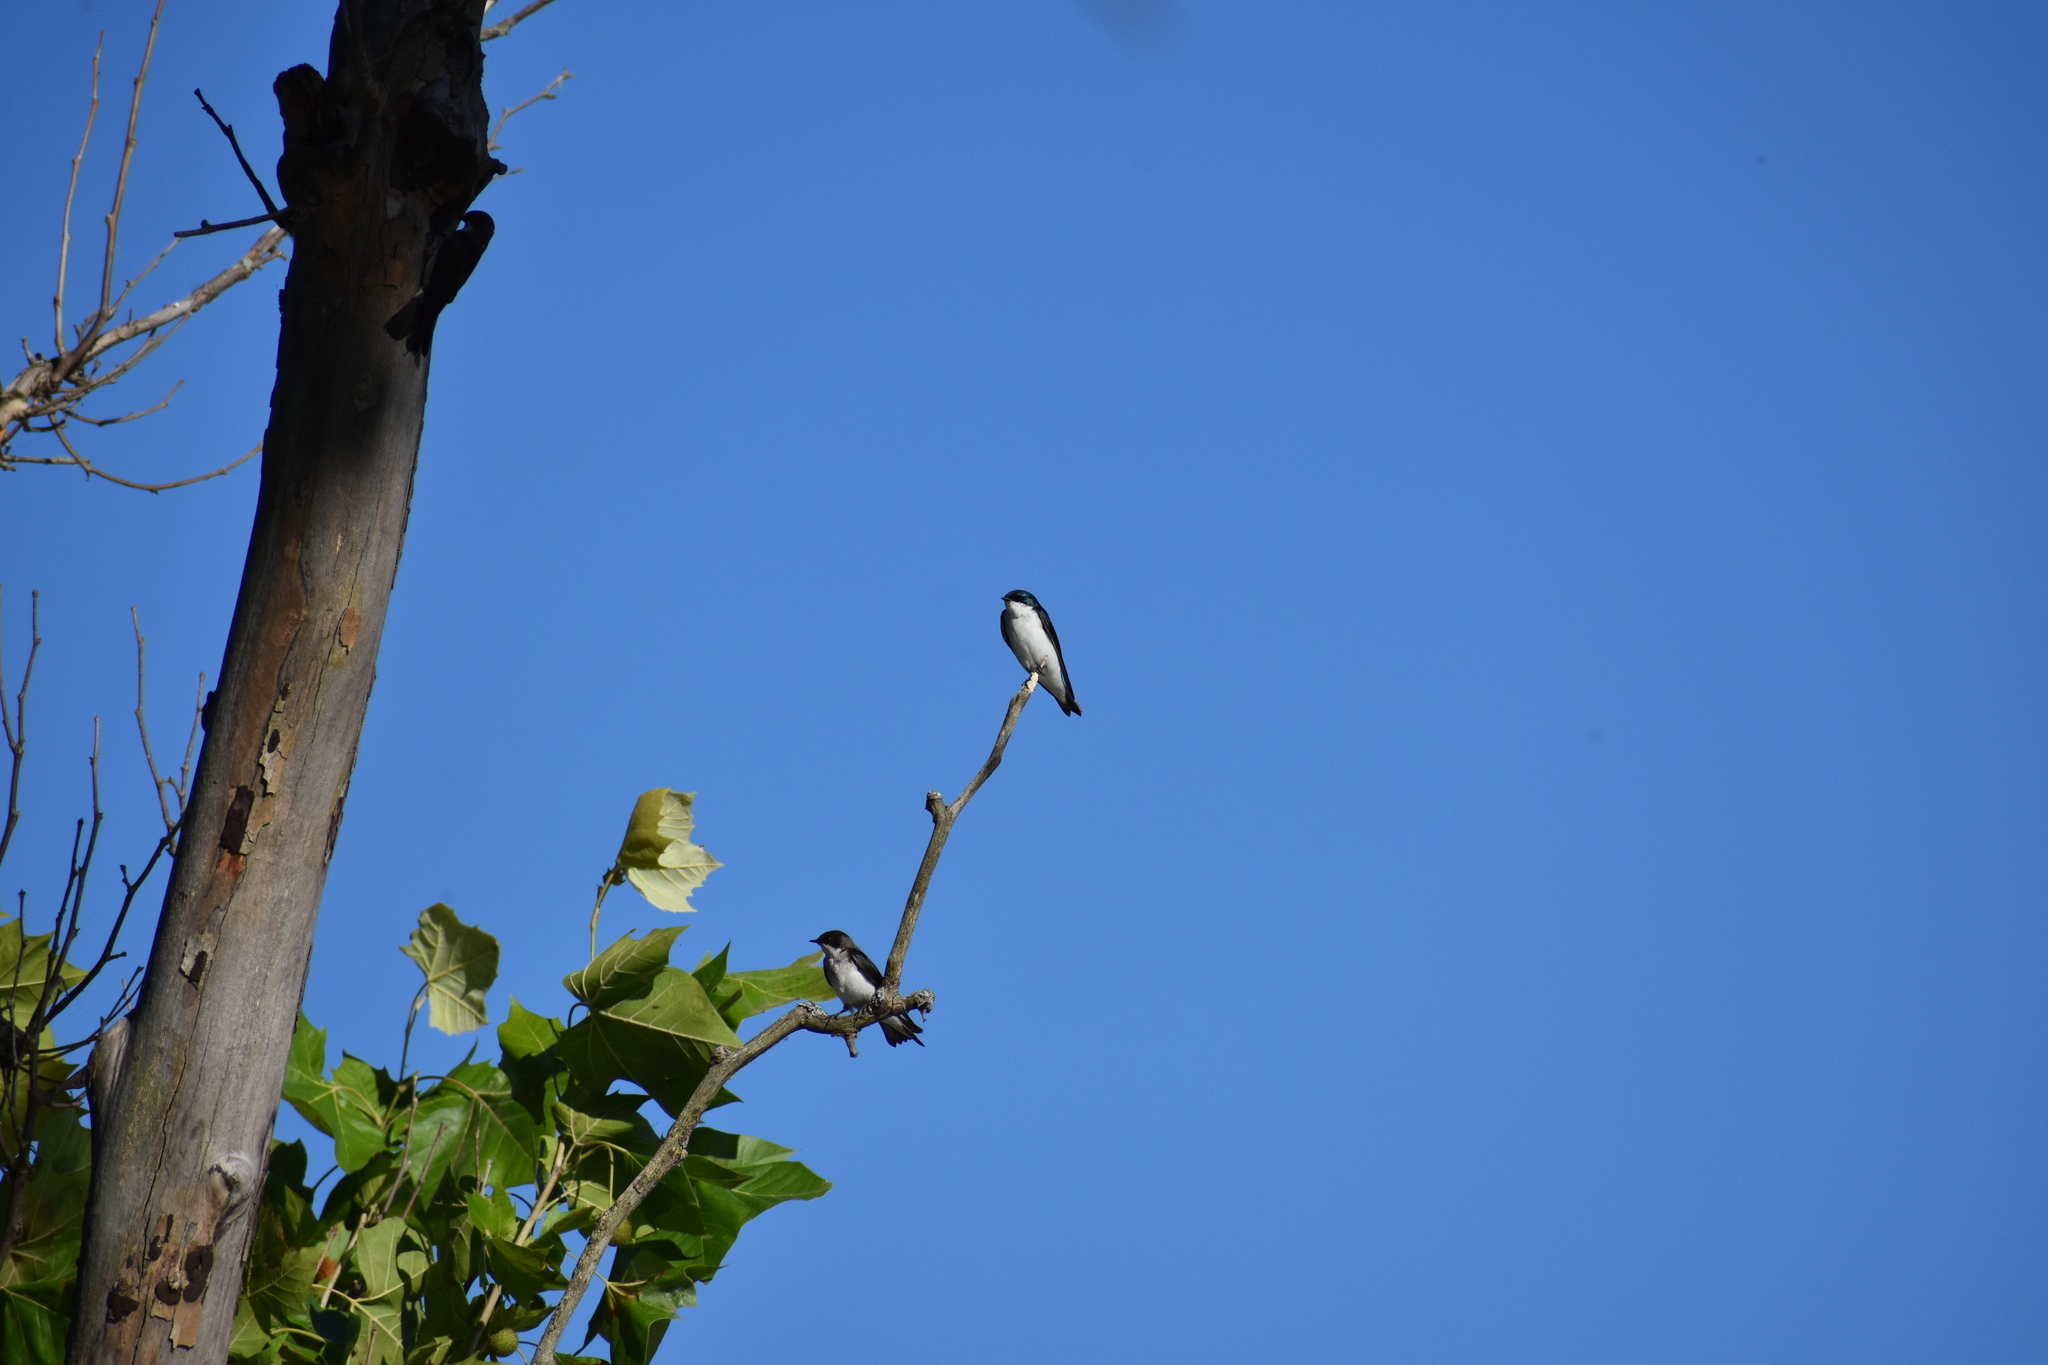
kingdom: Animalia
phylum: Chordata
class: Aves
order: Passeriformes
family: Hirundinidae
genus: Tachycineta
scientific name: Tachycineta bicolor
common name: Tree swallow
